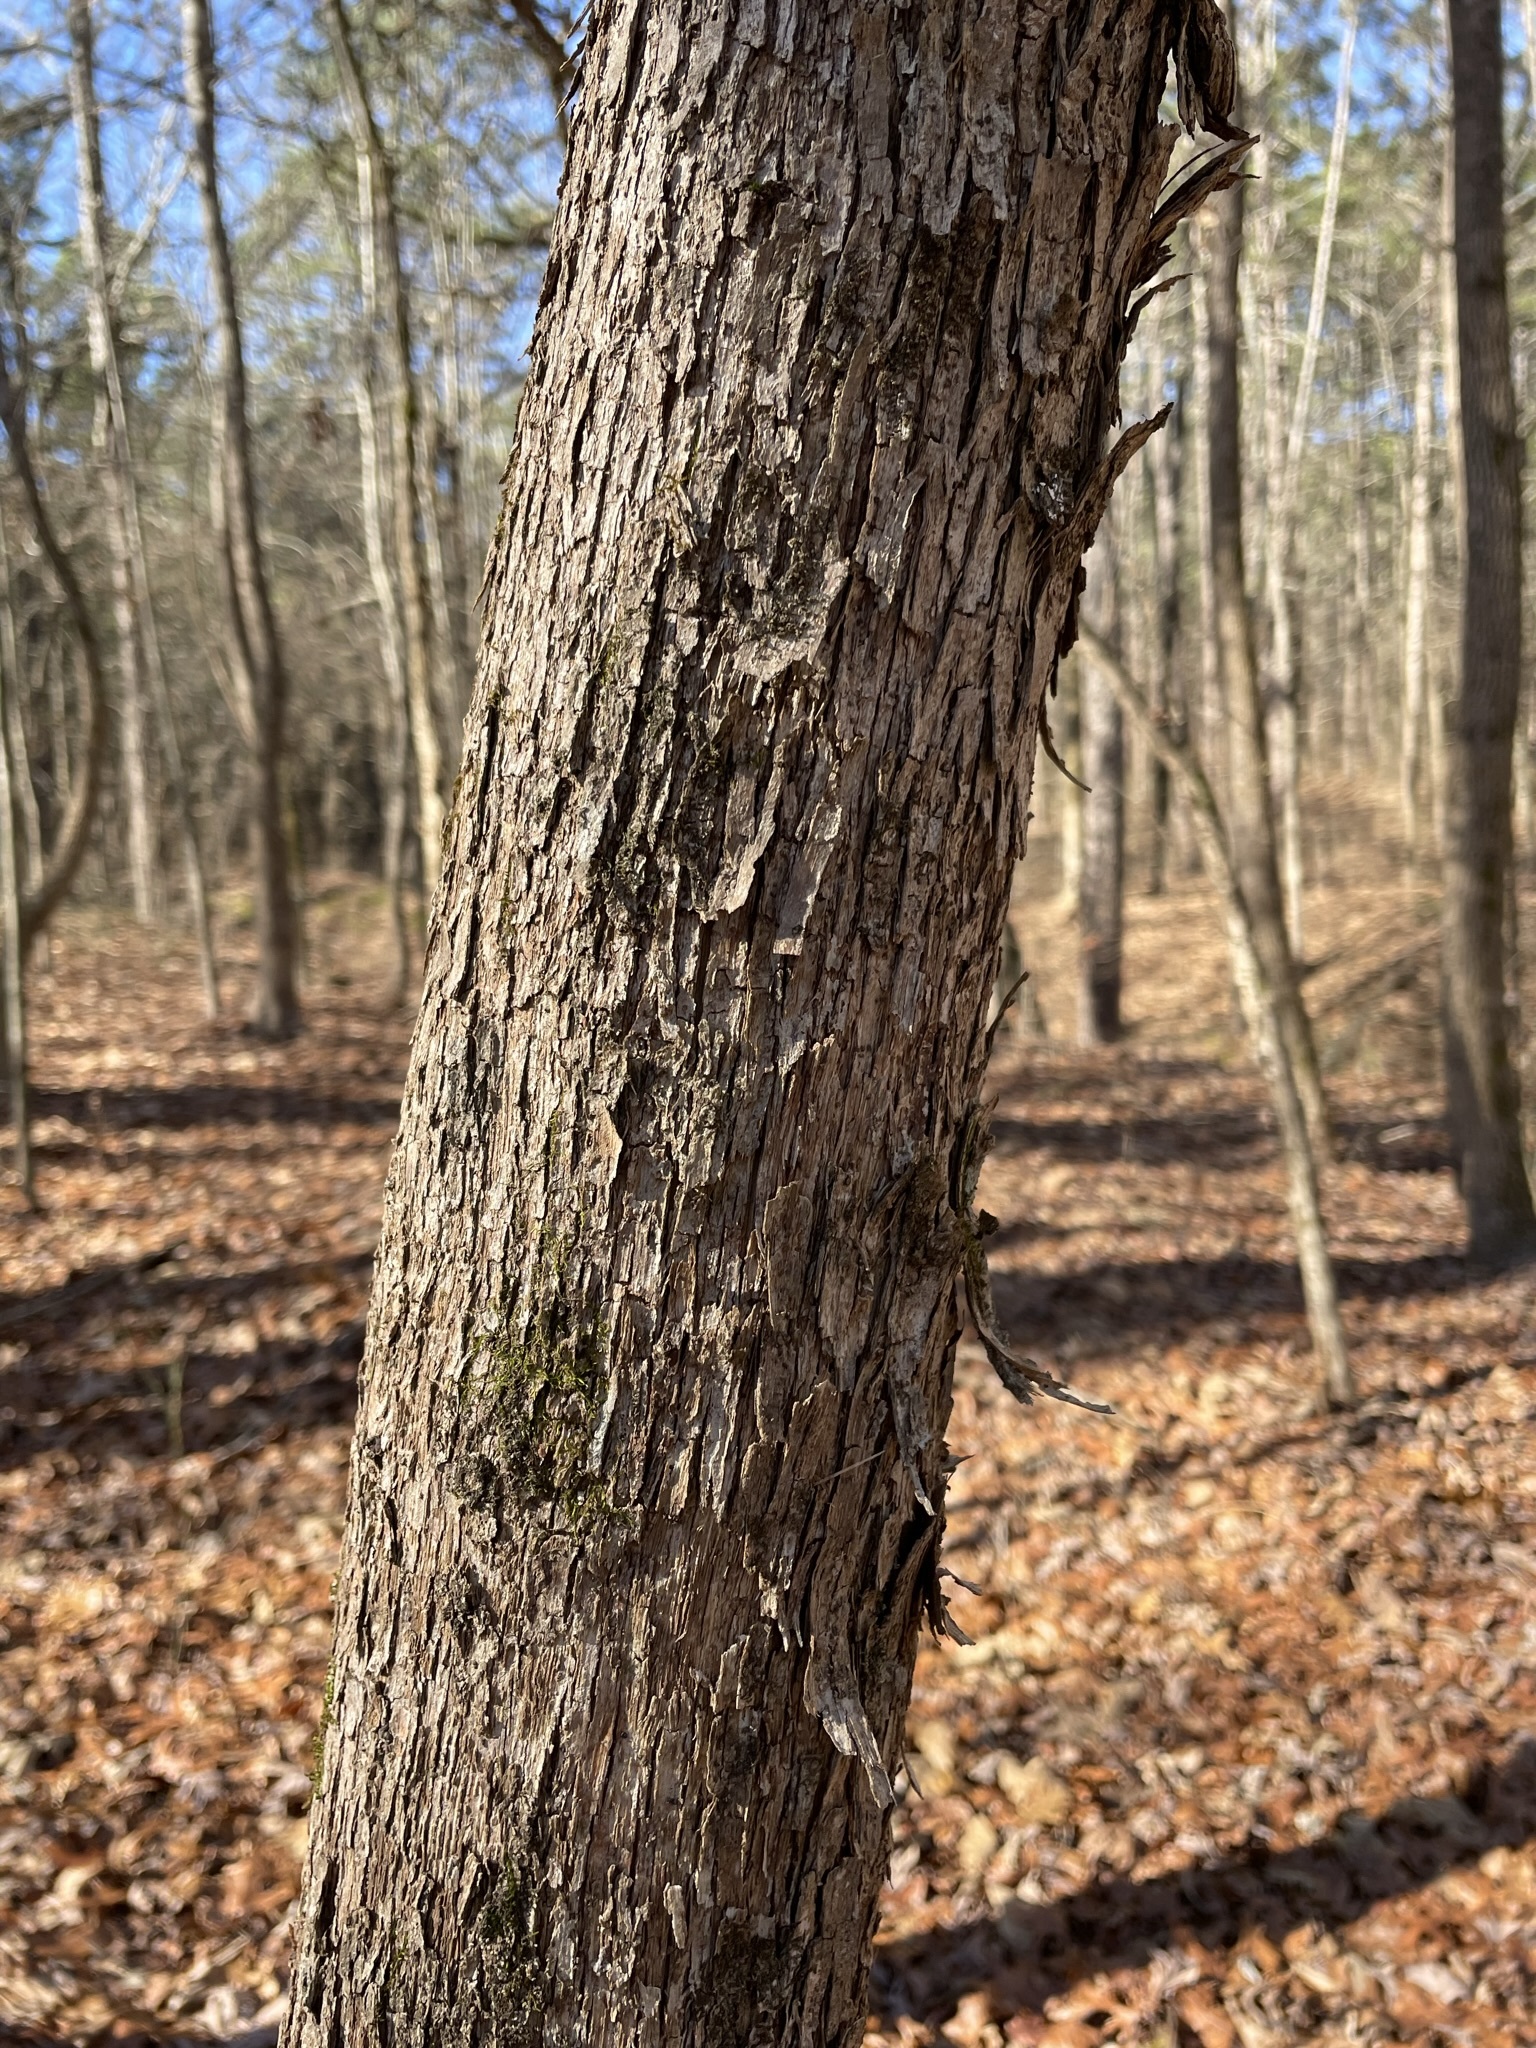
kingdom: Plantae
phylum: Tracheophyta
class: Magnoliopsida
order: Fagales
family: Betulaceae
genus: Ostrya
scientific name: Ostrya virginiana
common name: Ironwood
